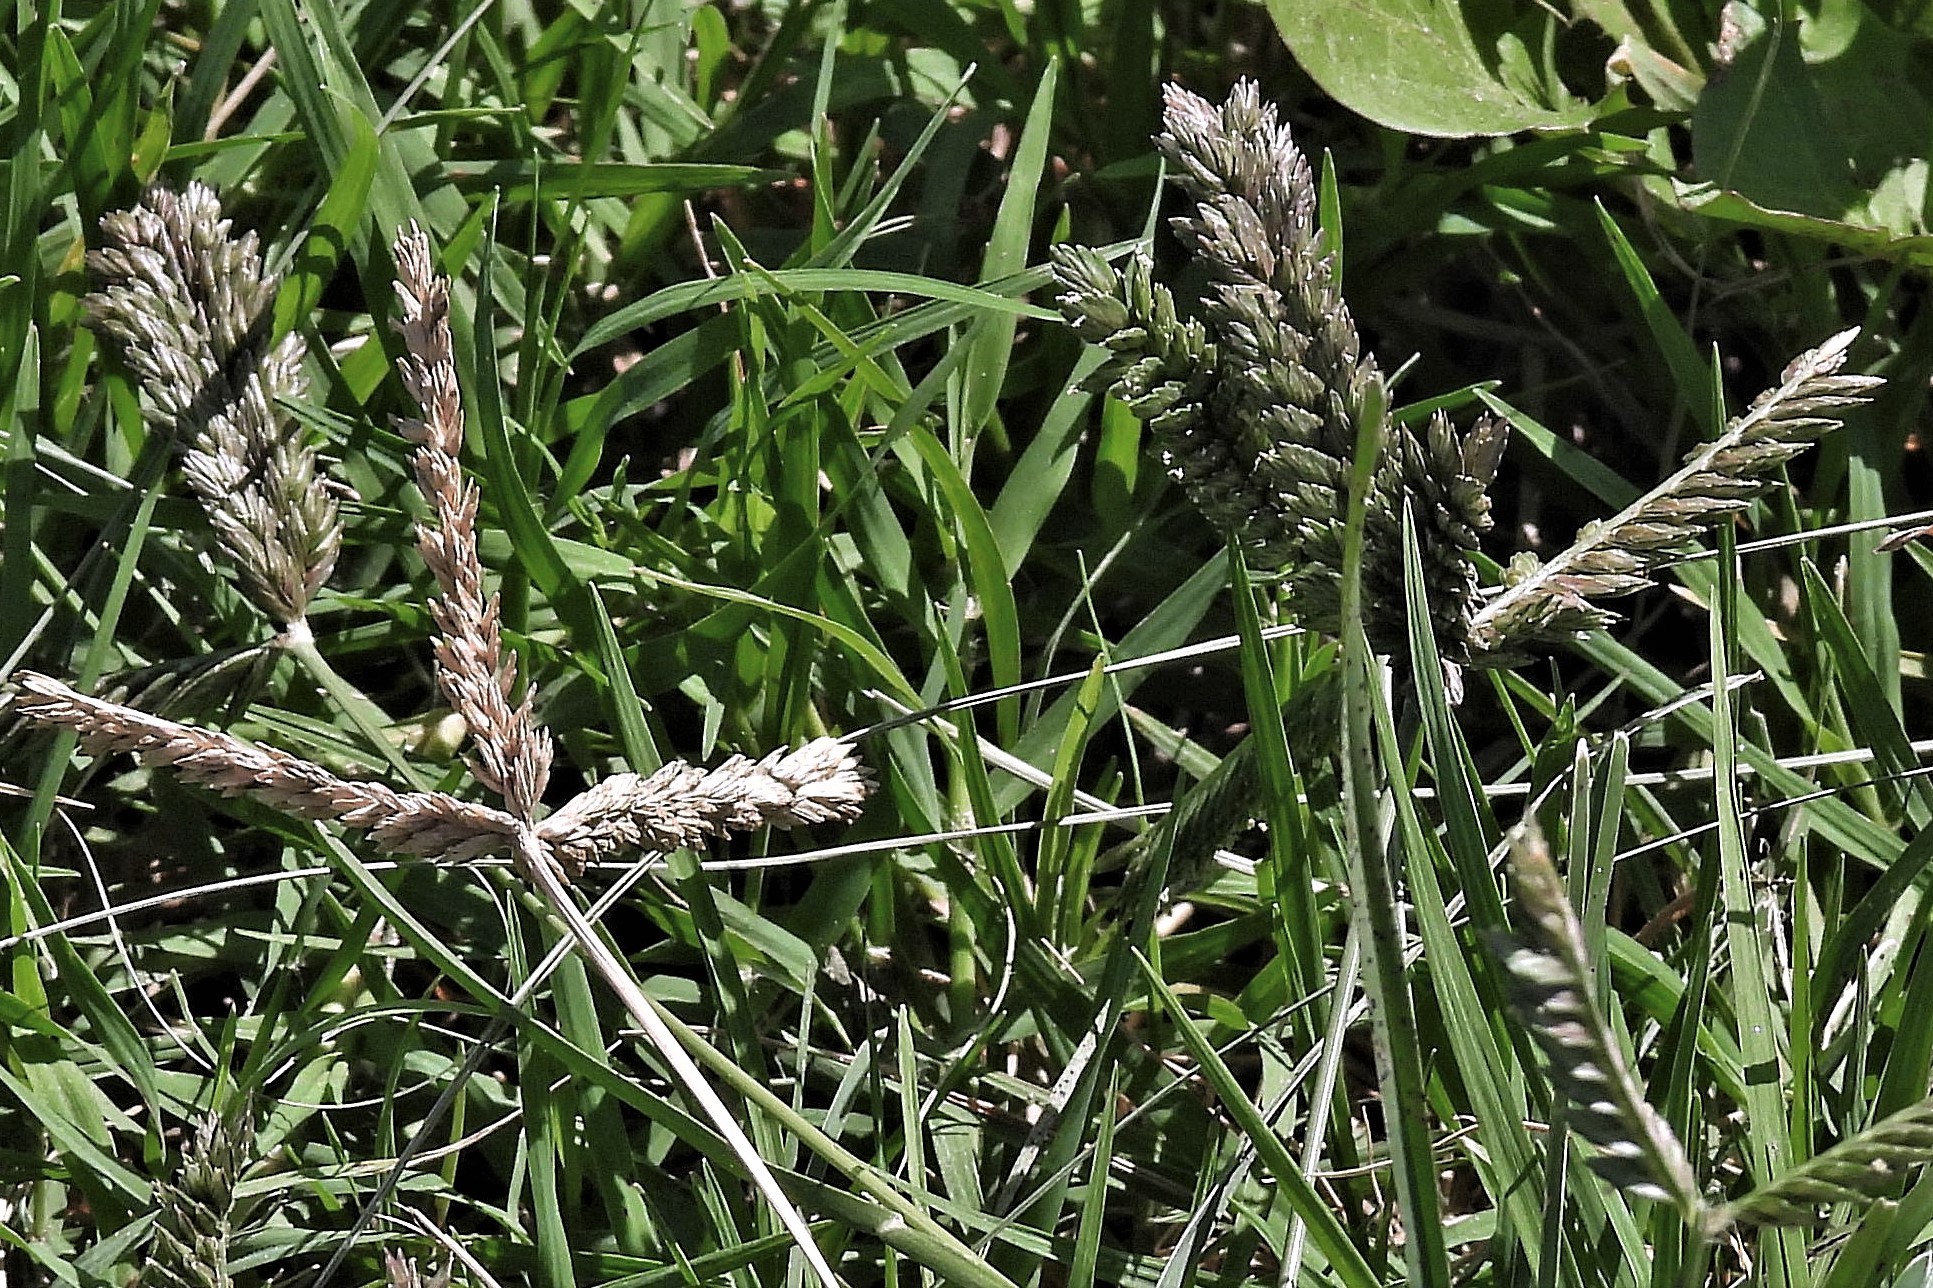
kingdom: Plantae
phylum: Tracheophyta
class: Liliopsida
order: Poales
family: Poaceae
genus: Eleusine
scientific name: Eleusine tristachya
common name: American yard-grass
